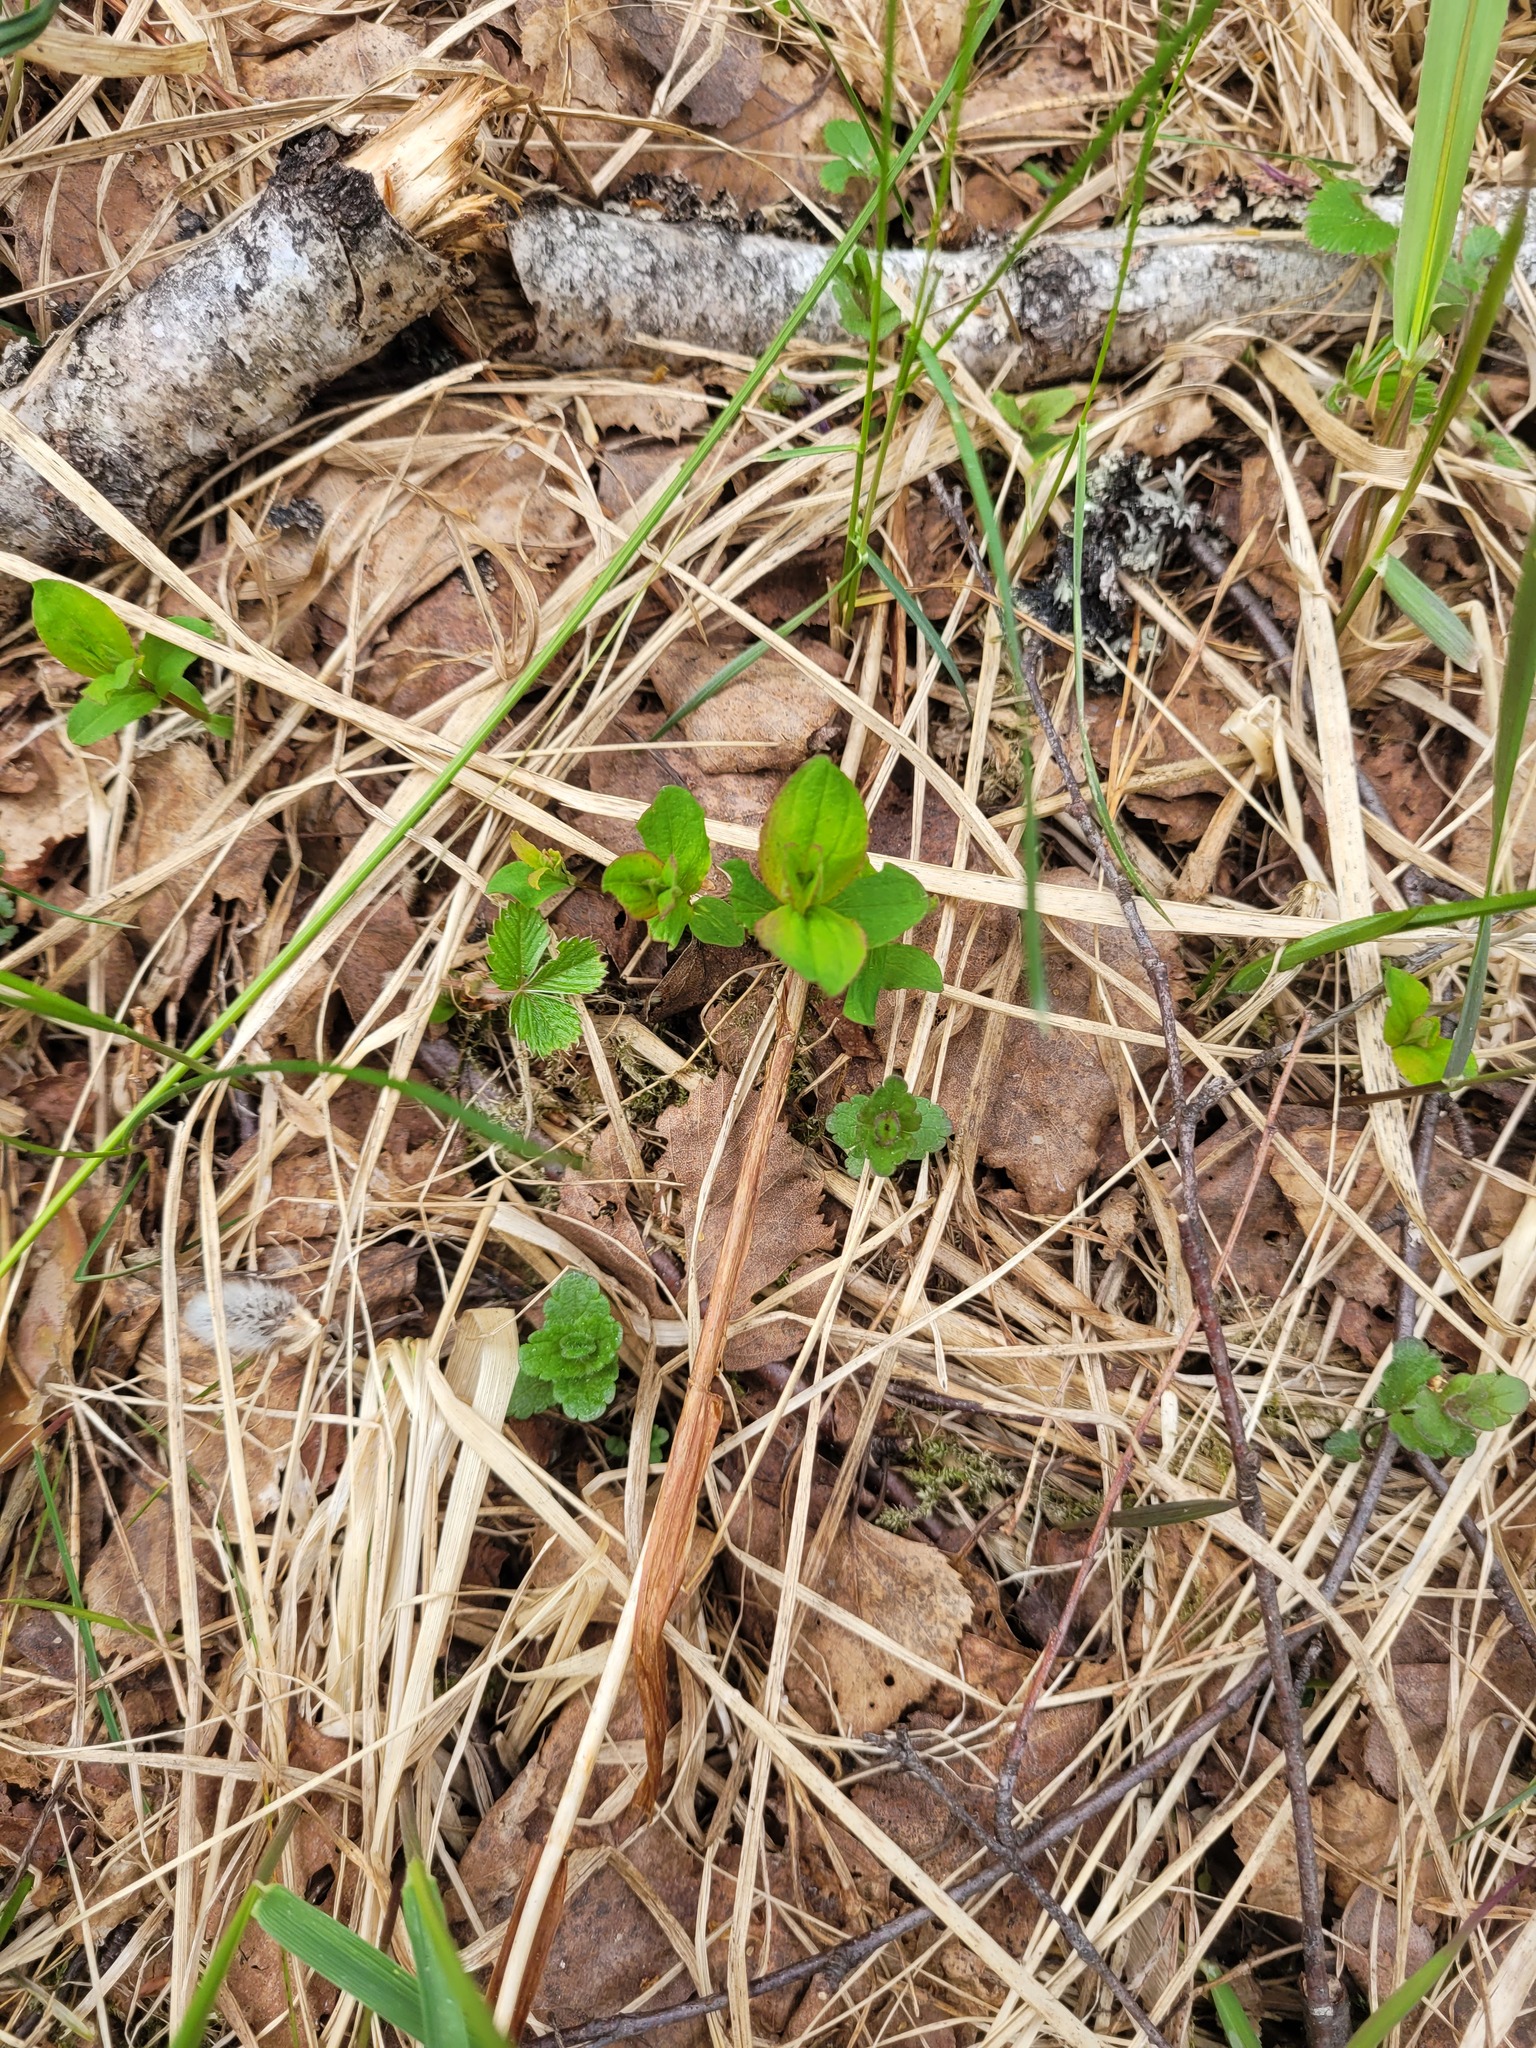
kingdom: Plantae
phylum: Tracheophyta
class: Magnoliopsida
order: Malpighiales
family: Hypericaceae
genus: Hypericum
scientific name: Hypericum maculatum
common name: Imperforate st. john's-wort
